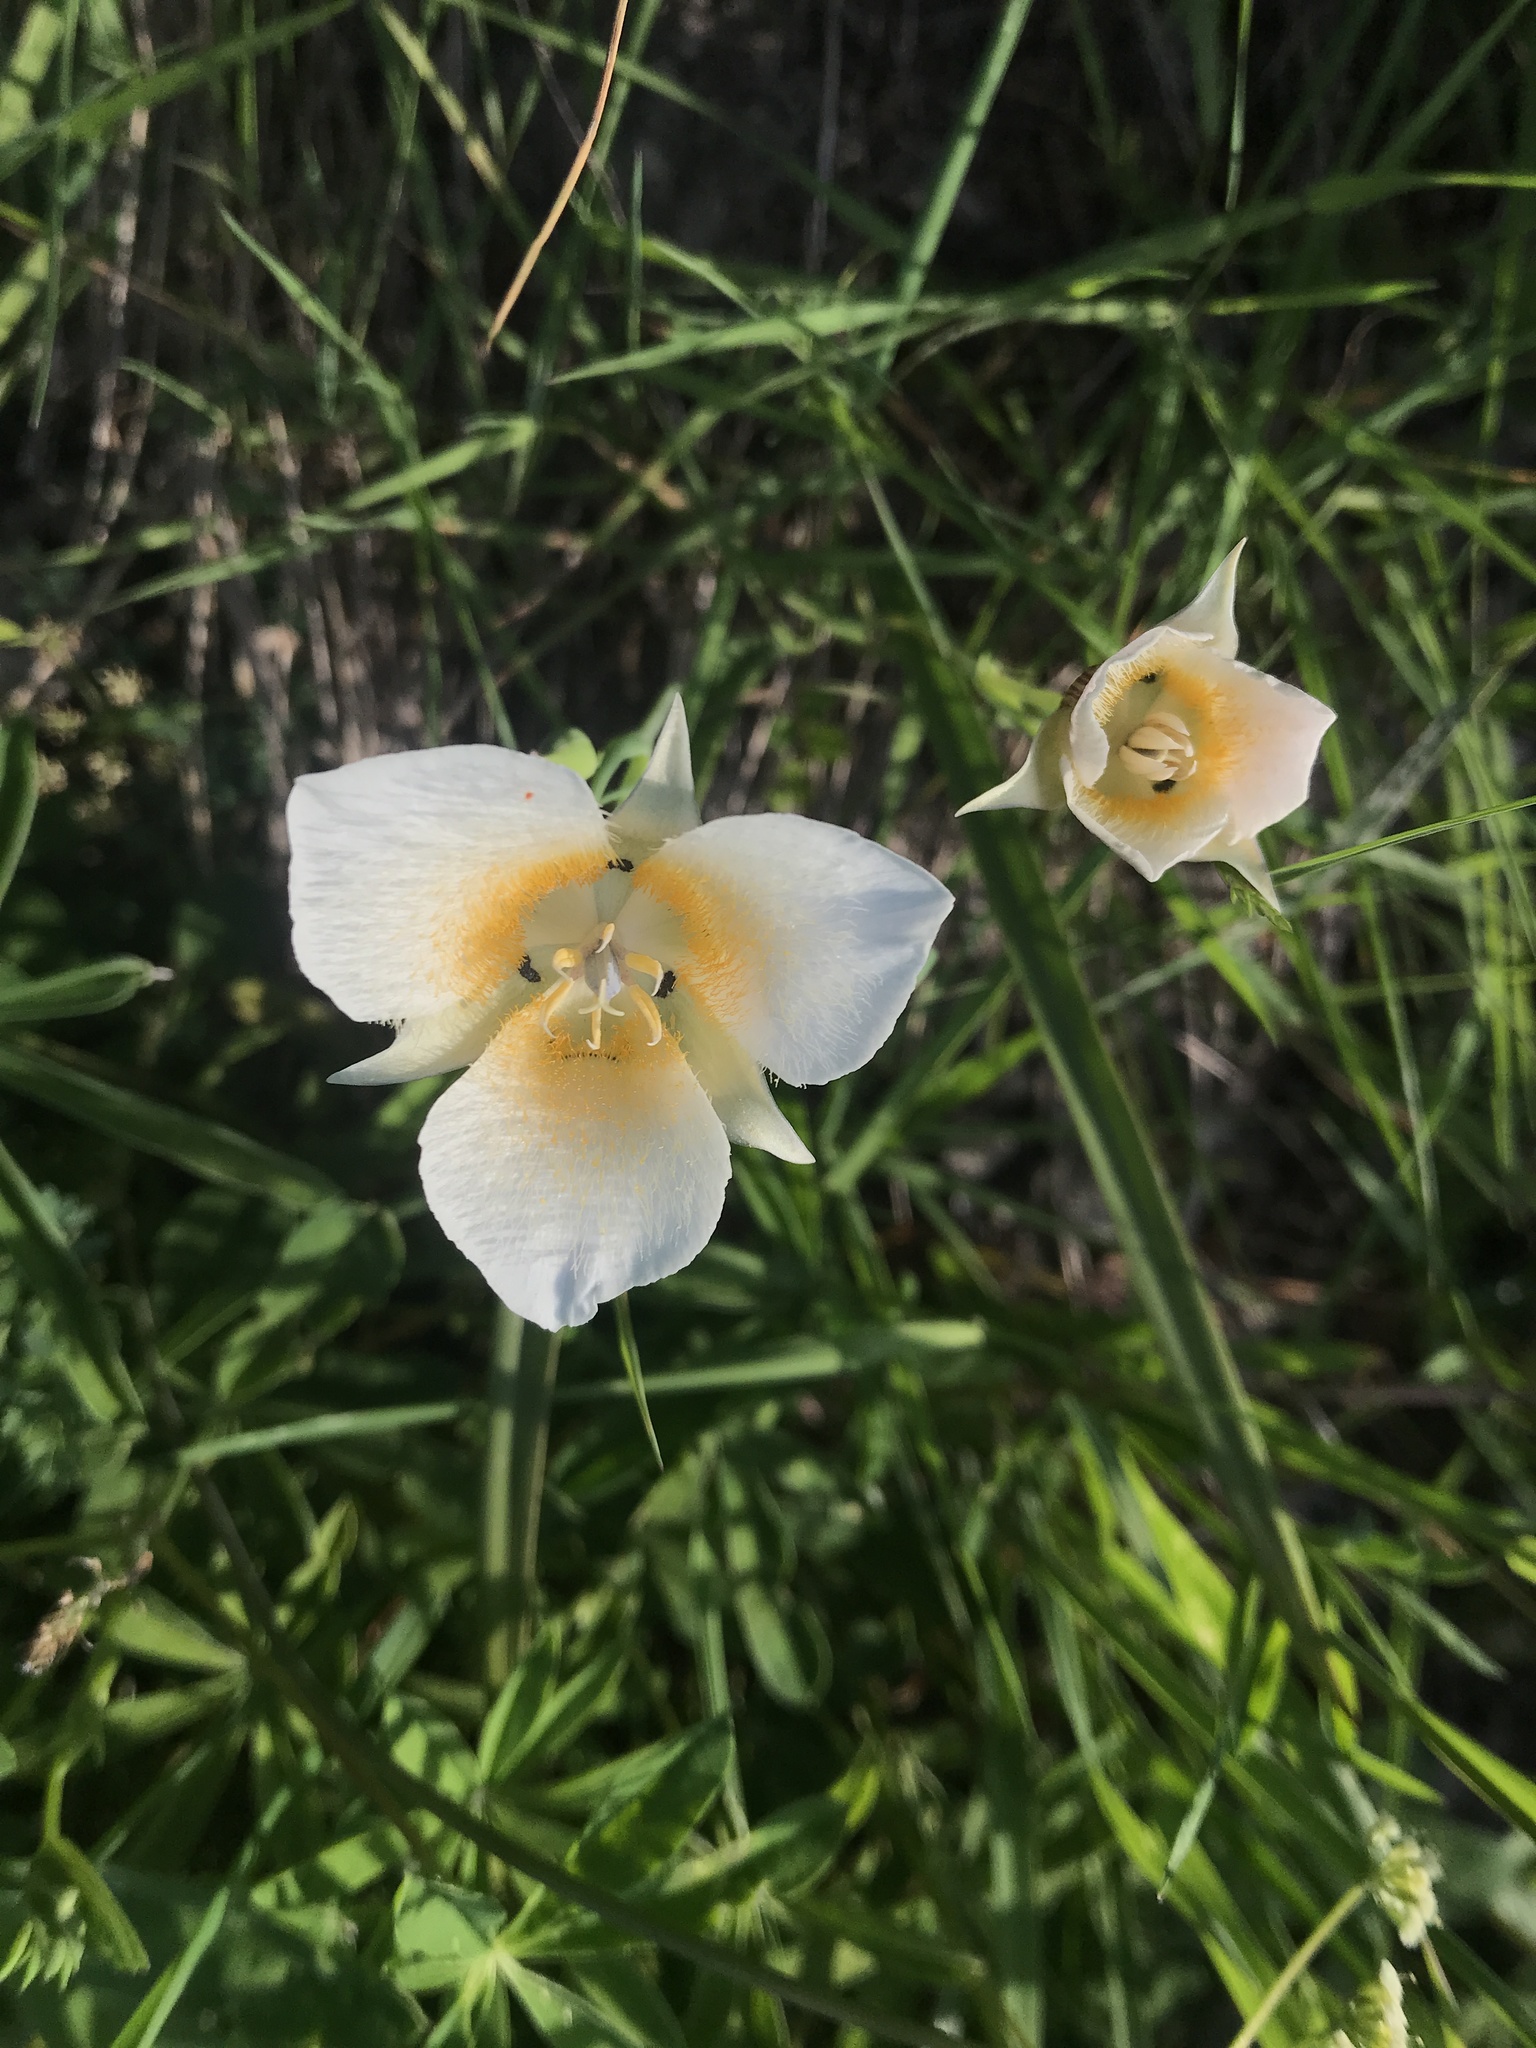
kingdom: Plantae
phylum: Tracheophyta
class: Liliopsida
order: Liliales
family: Liliaceae
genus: Calochortus
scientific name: Calochortus subalpinus
